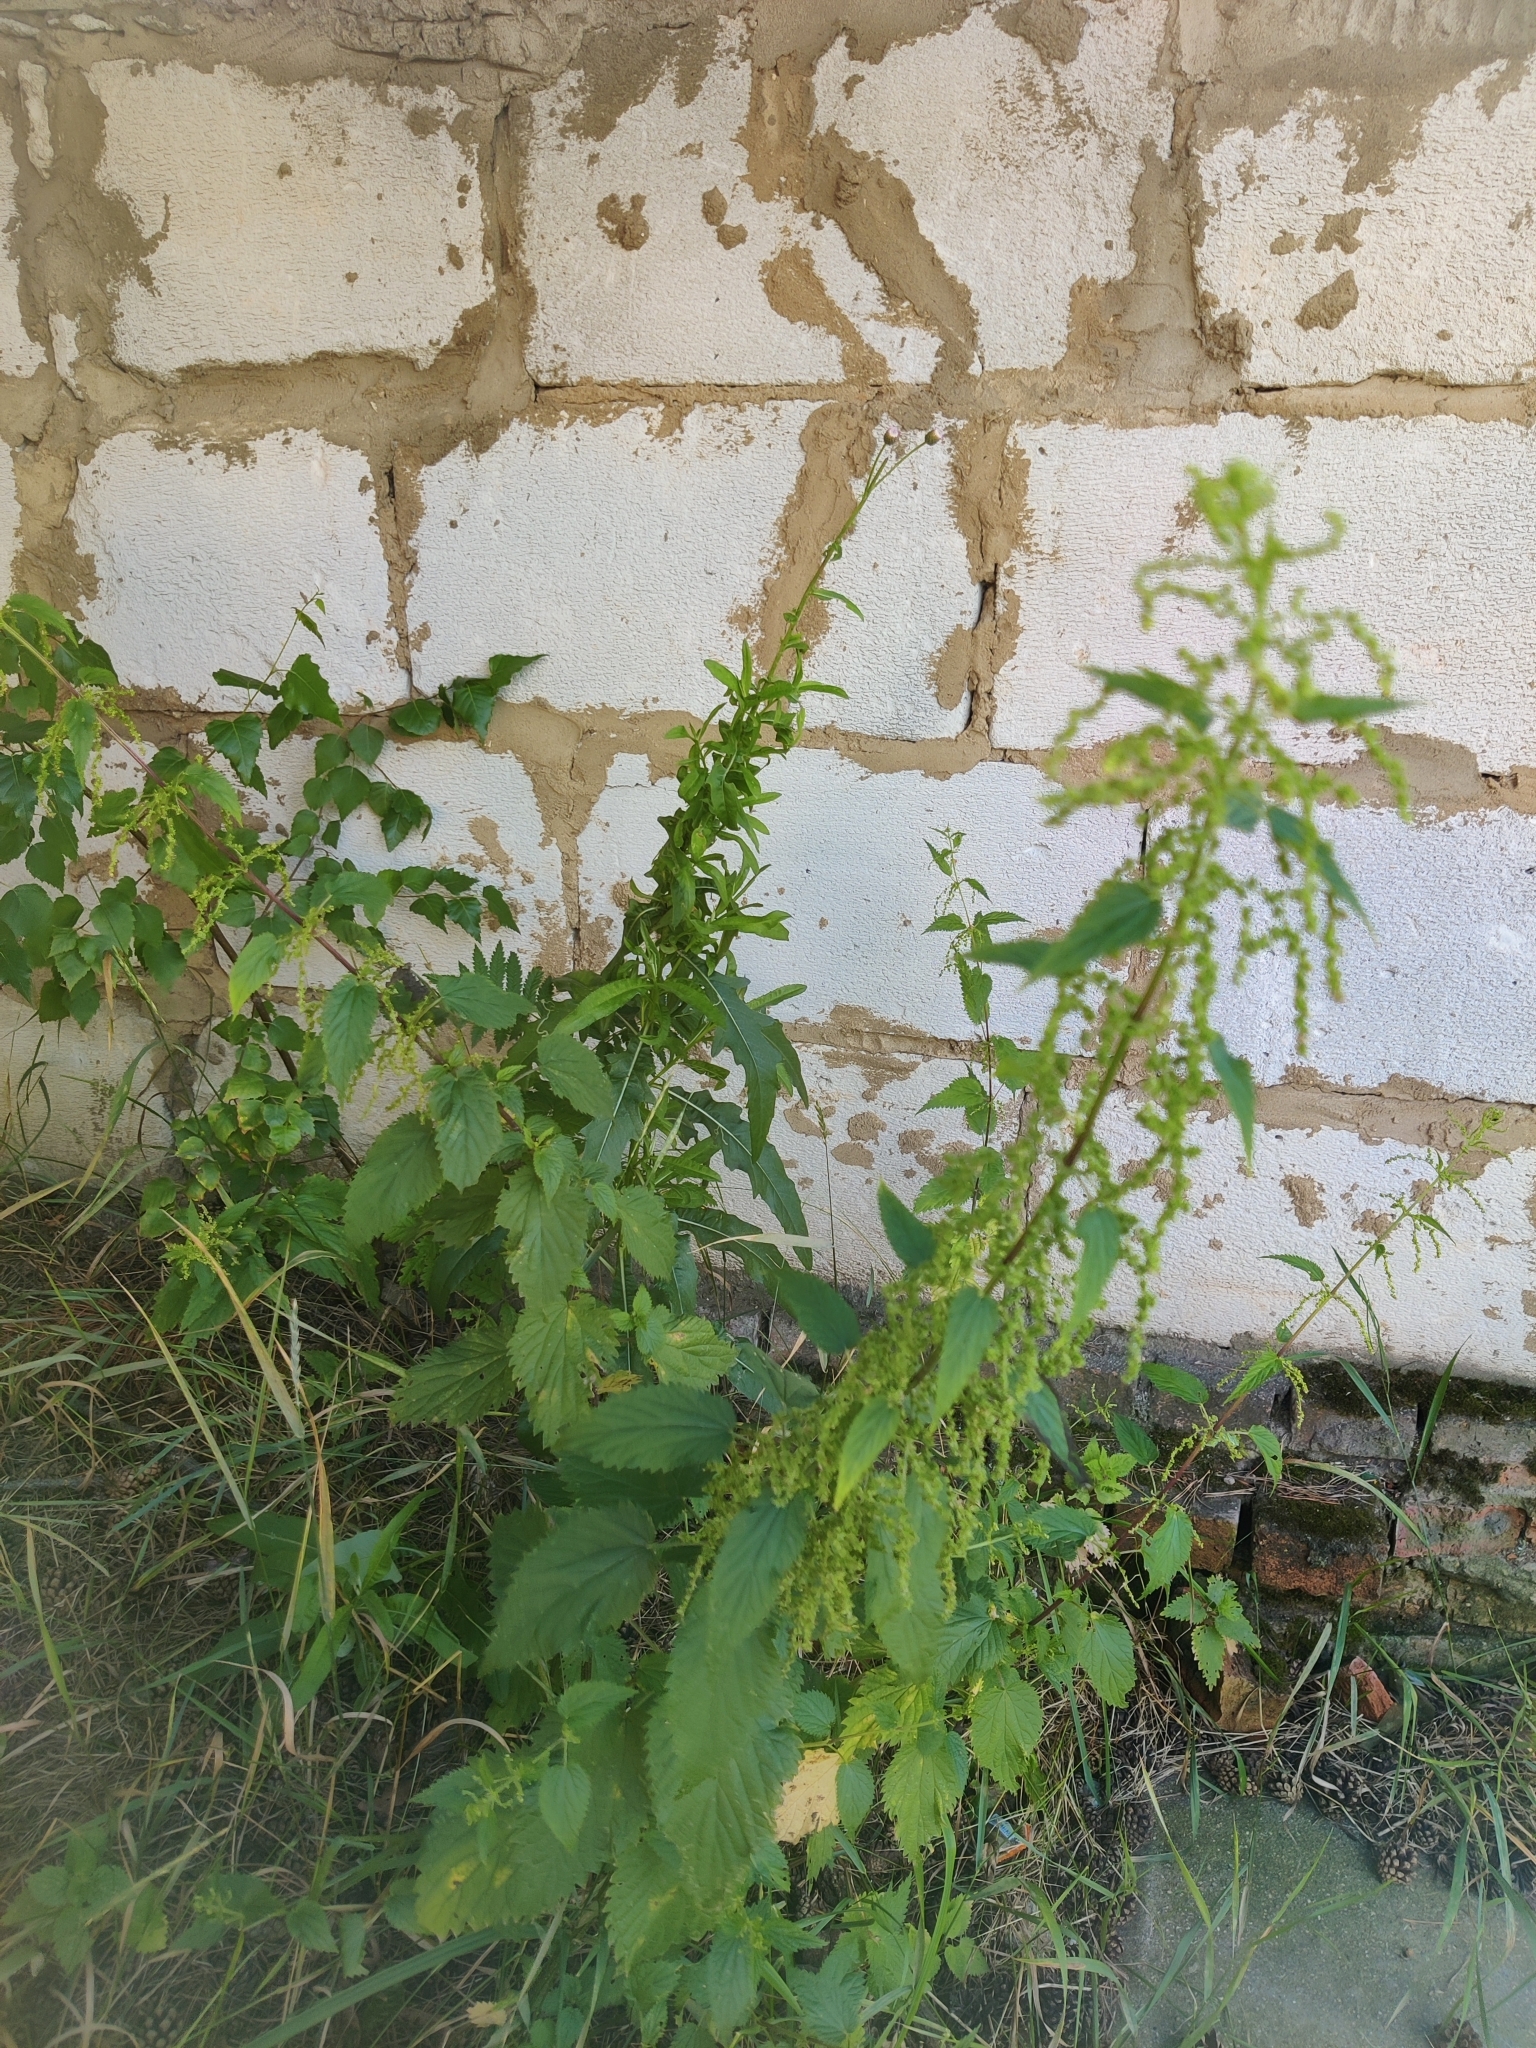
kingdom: Plantae
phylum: Tracheophyta
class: Magnoliopsida
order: Rosales
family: Urticaceae
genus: Urtica
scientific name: Urtica dioica
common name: Common nettle
